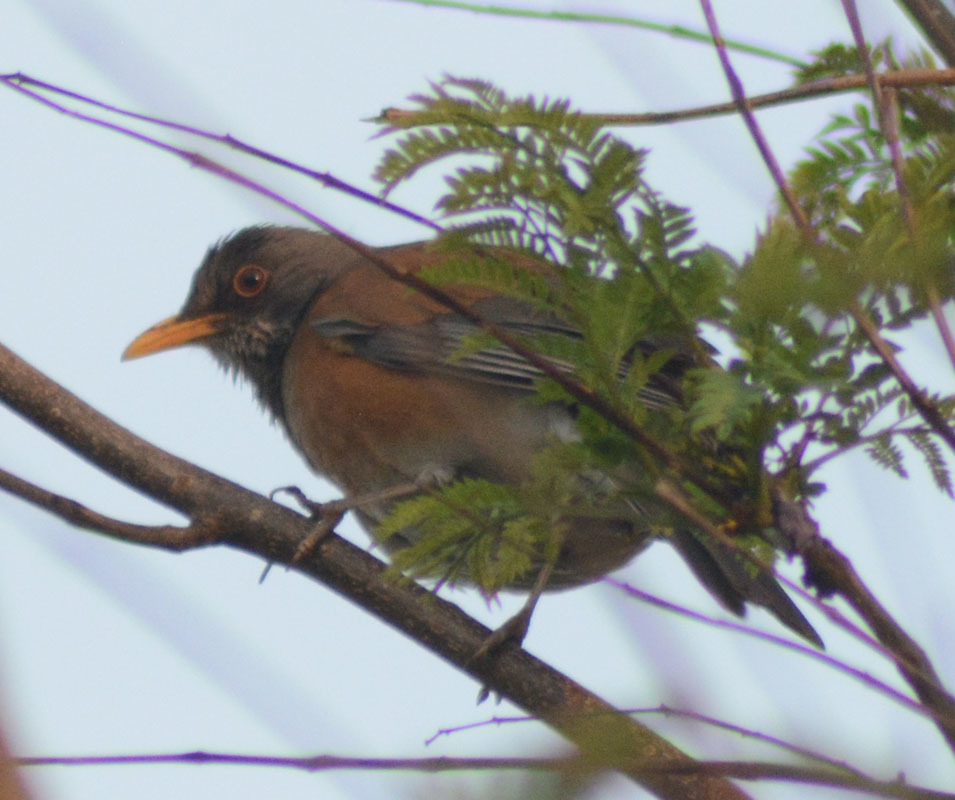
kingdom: Animalia
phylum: Chordata
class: Aves
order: Passeriformes
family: Turdidae
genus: Turdus
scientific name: Turdus rufopalliatus
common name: Rufous-backed robin
